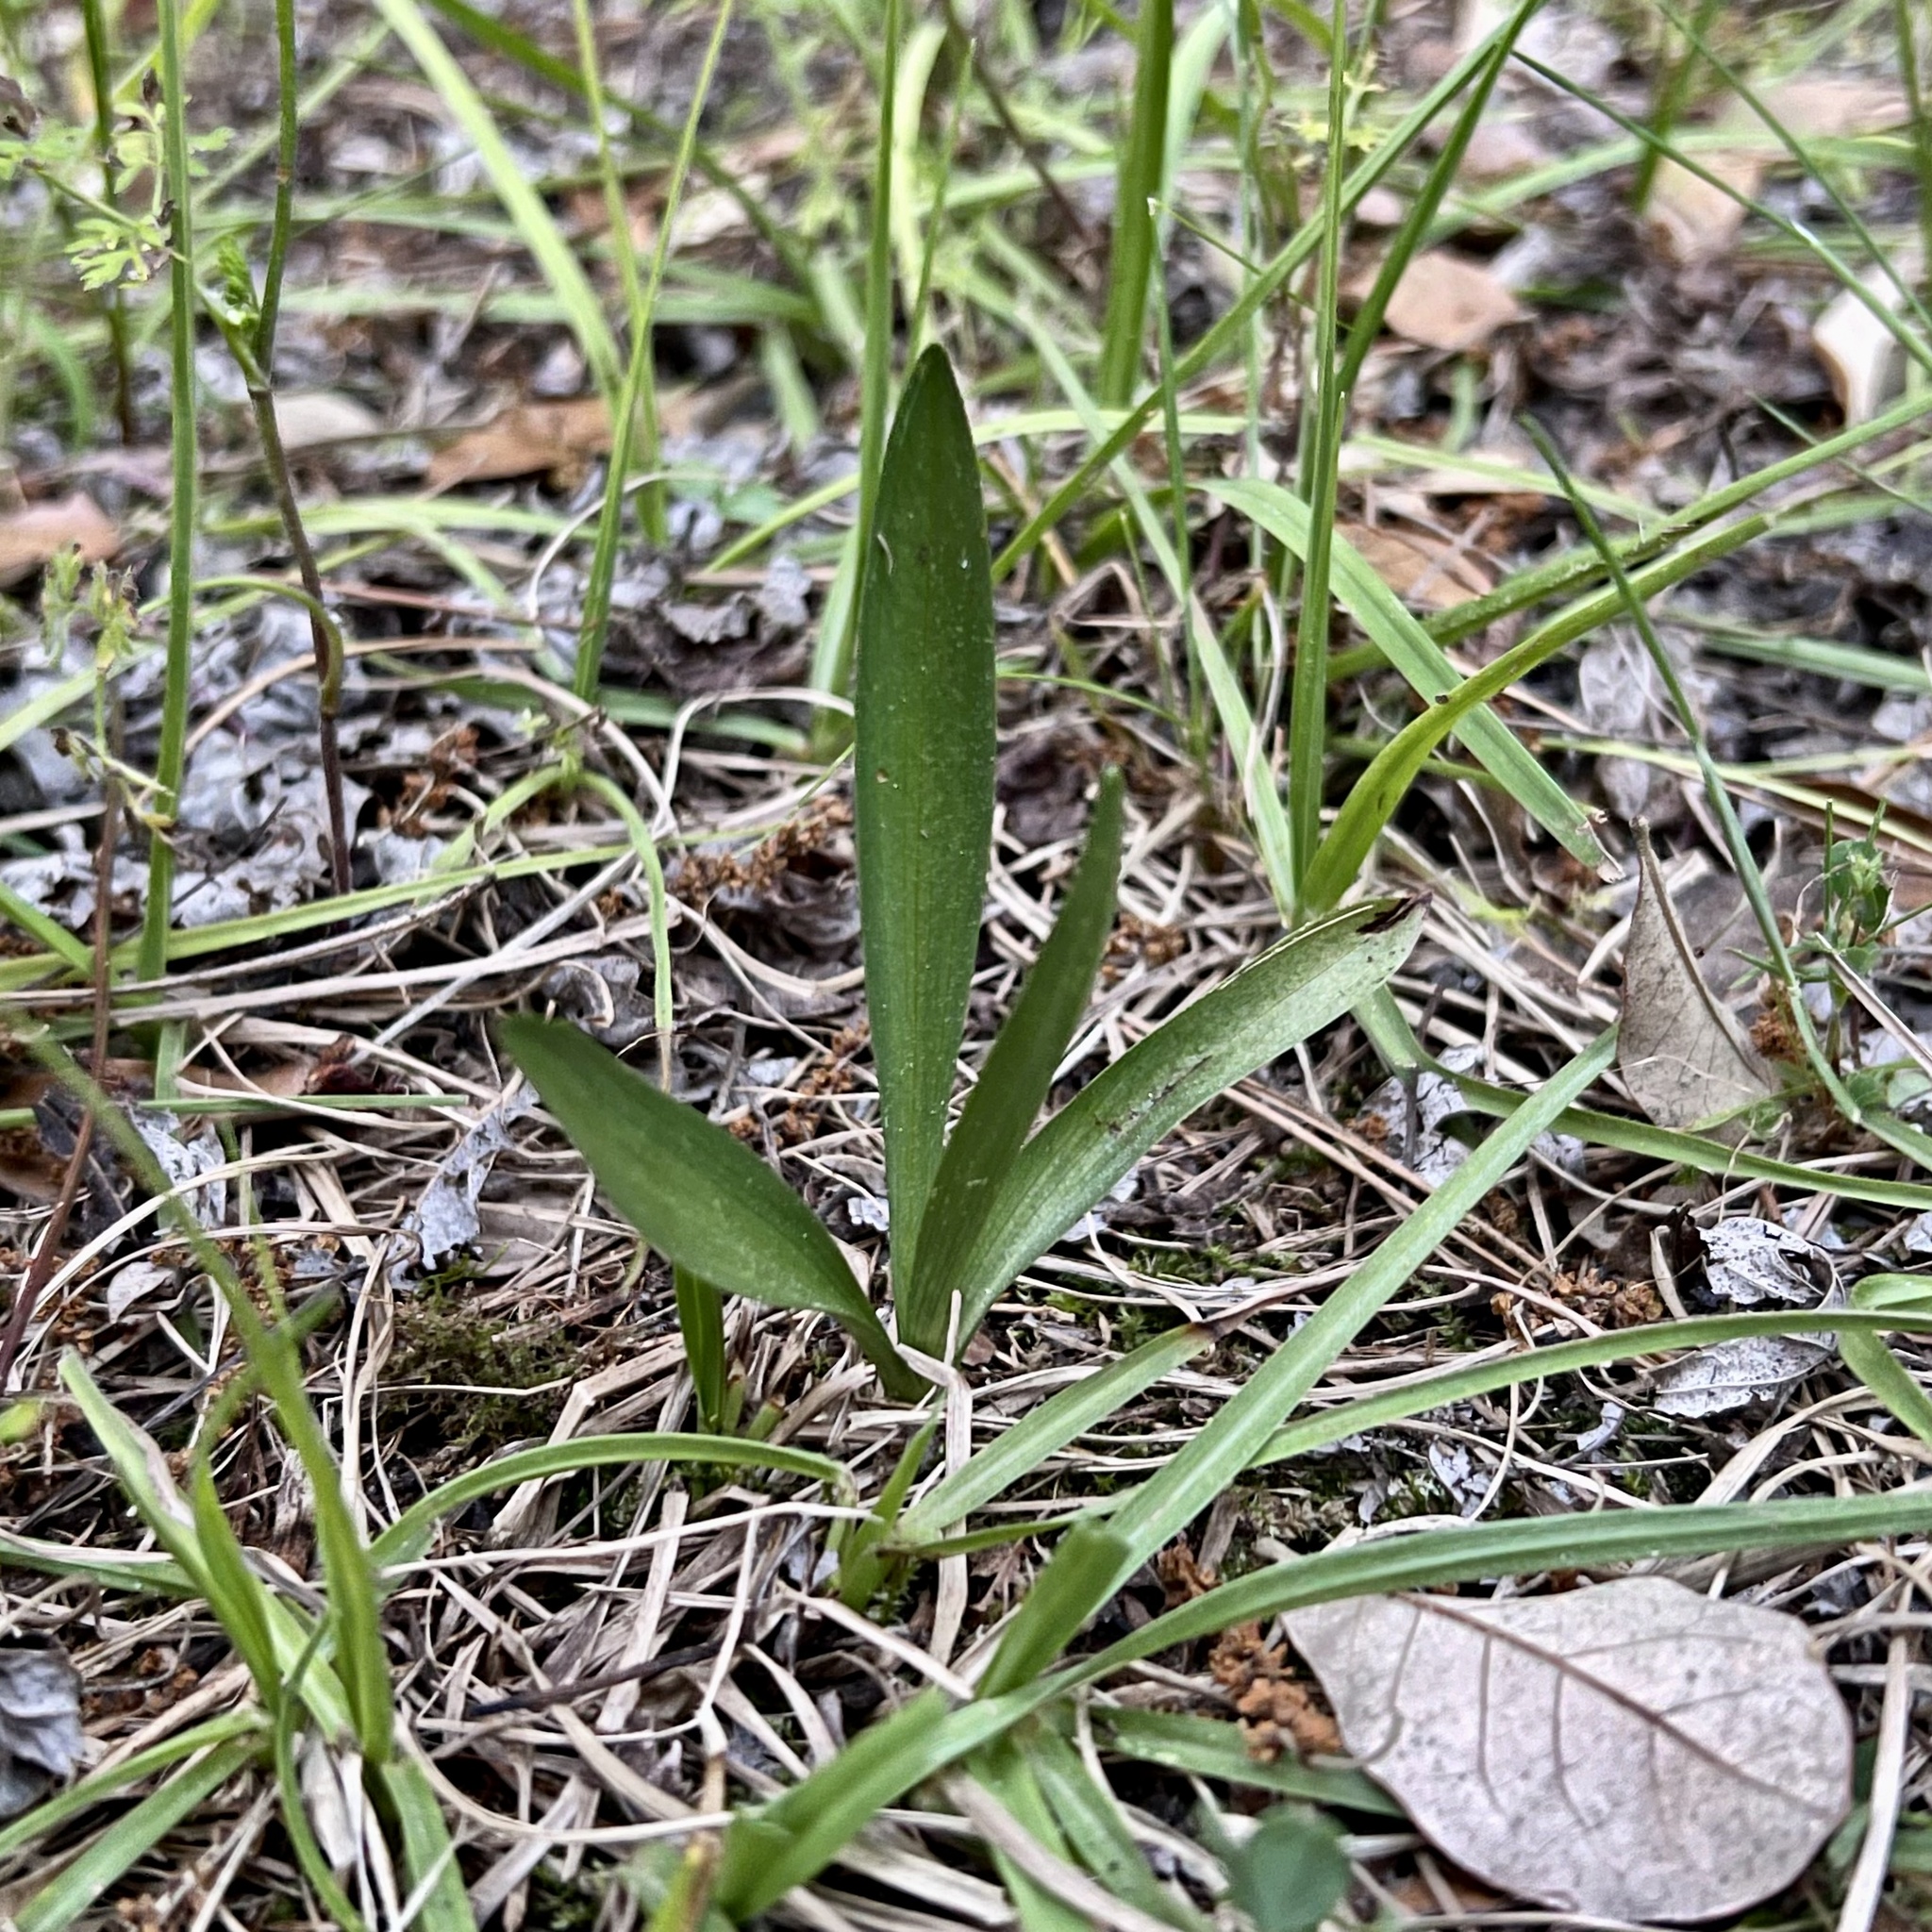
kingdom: Plantae
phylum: Tracheophyta
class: Liliopsida
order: Asparagales
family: Orchidaceae
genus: Spiranthes
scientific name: Spiranthes vernalis
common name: Spring ladies'-tresses
